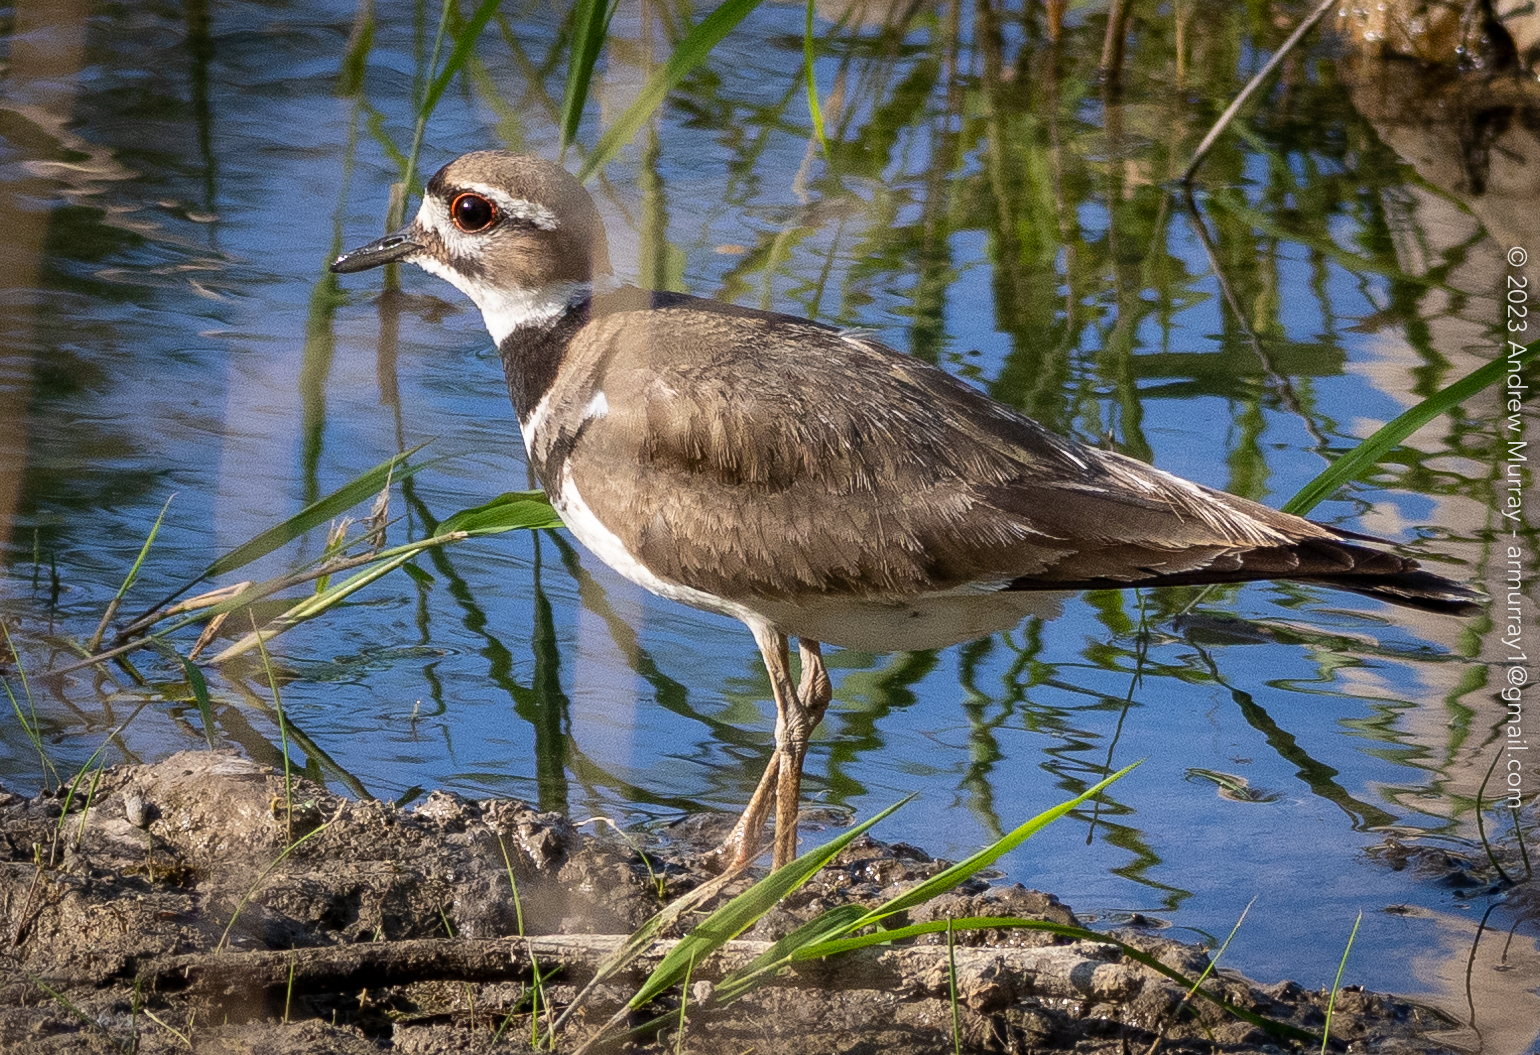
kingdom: Animalia
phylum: Chordata
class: Aves
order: Charadriiformes
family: Charadriidae
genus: Charadrius
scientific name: Charadrius vociferus
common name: Killdeer
